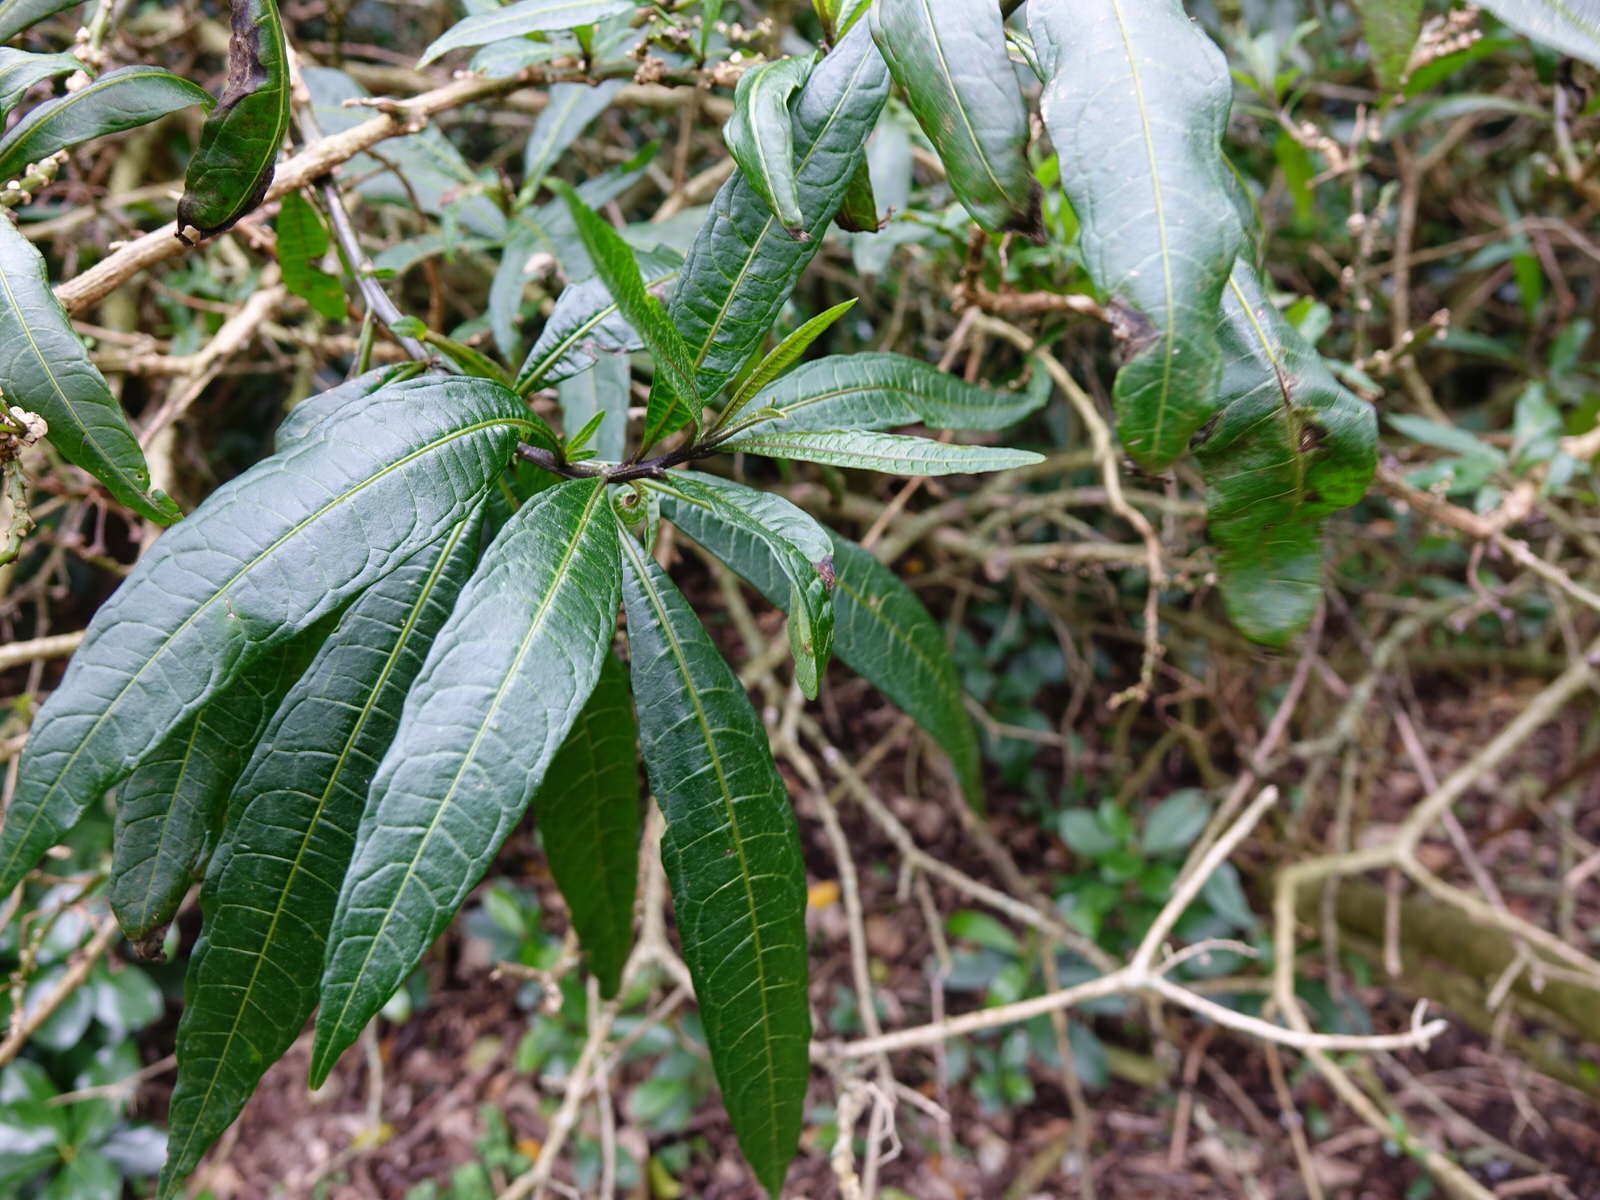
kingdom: Plantae
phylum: Tracheophyta
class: Magnoliopsida
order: Solanales
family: Solanaceae
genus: Solanum
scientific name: Solanum
